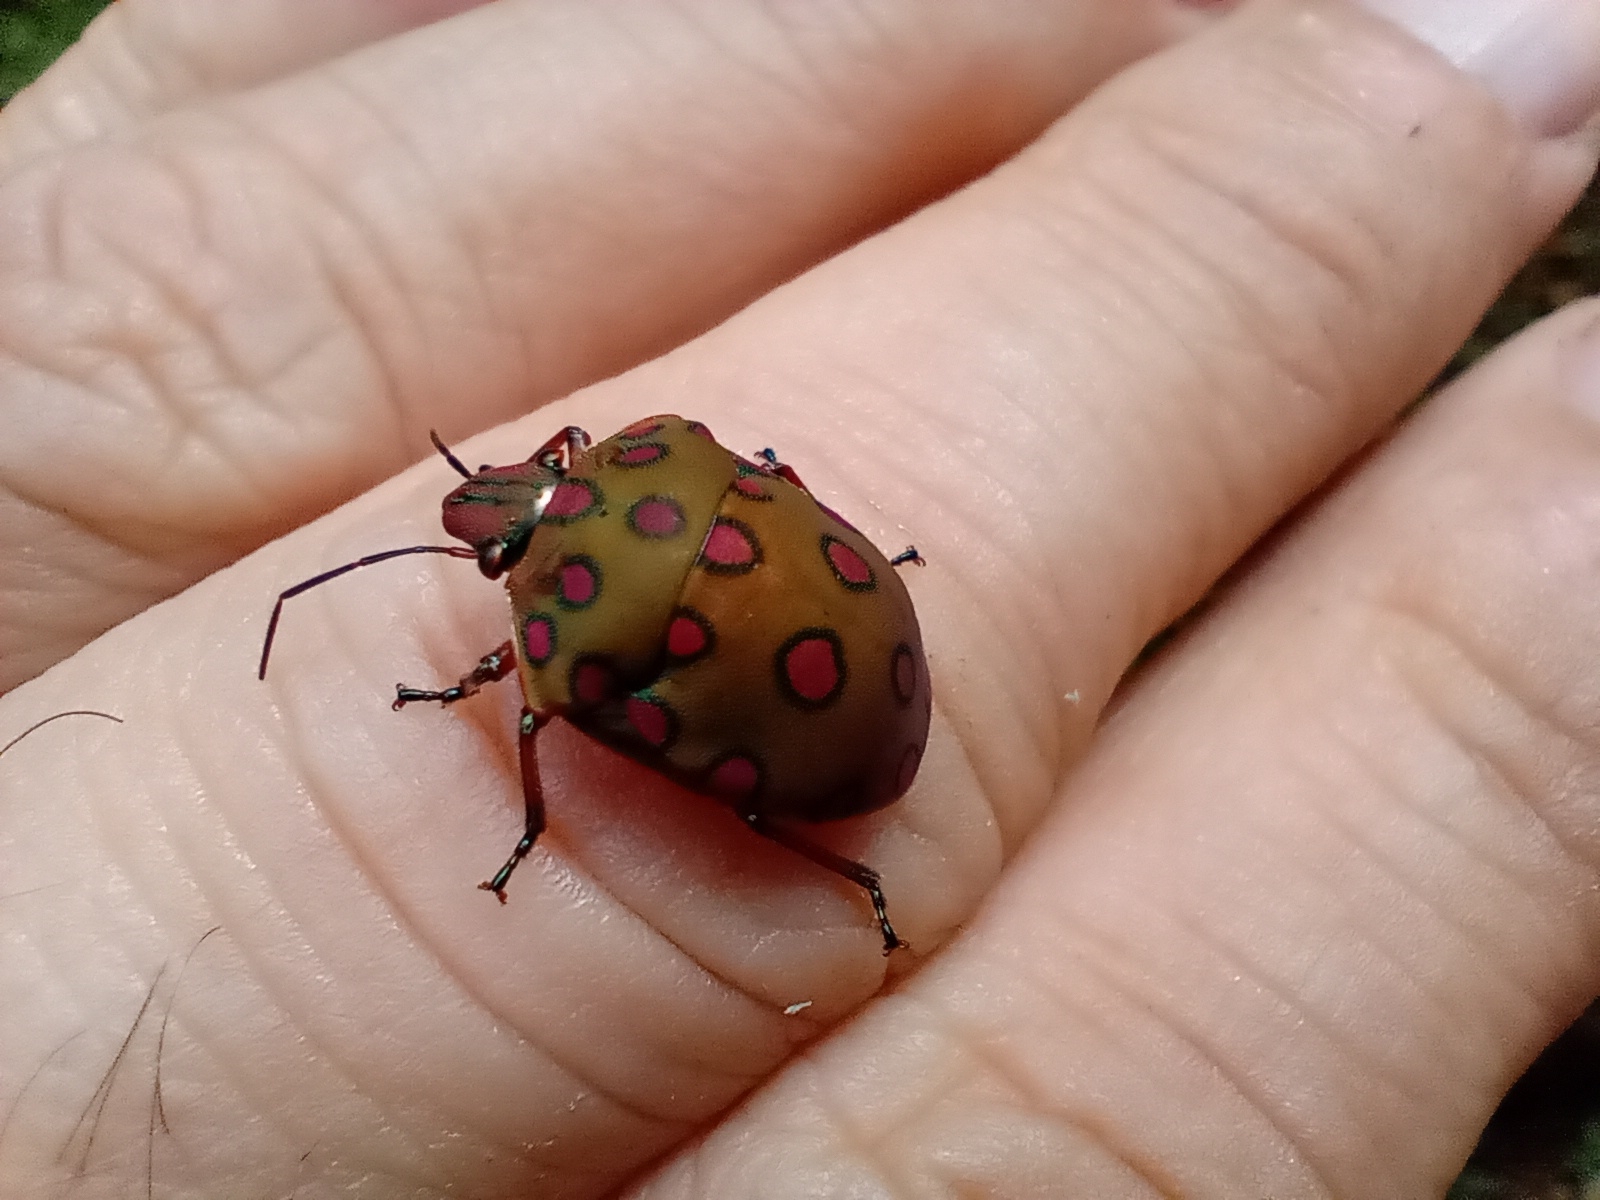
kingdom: Animalia
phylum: Arthropoda
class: Insecta
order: Hemiptera
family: Scutelleridae
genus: Pachycoris
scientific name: Pachycoris torridus
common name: Torrid jewel bug
